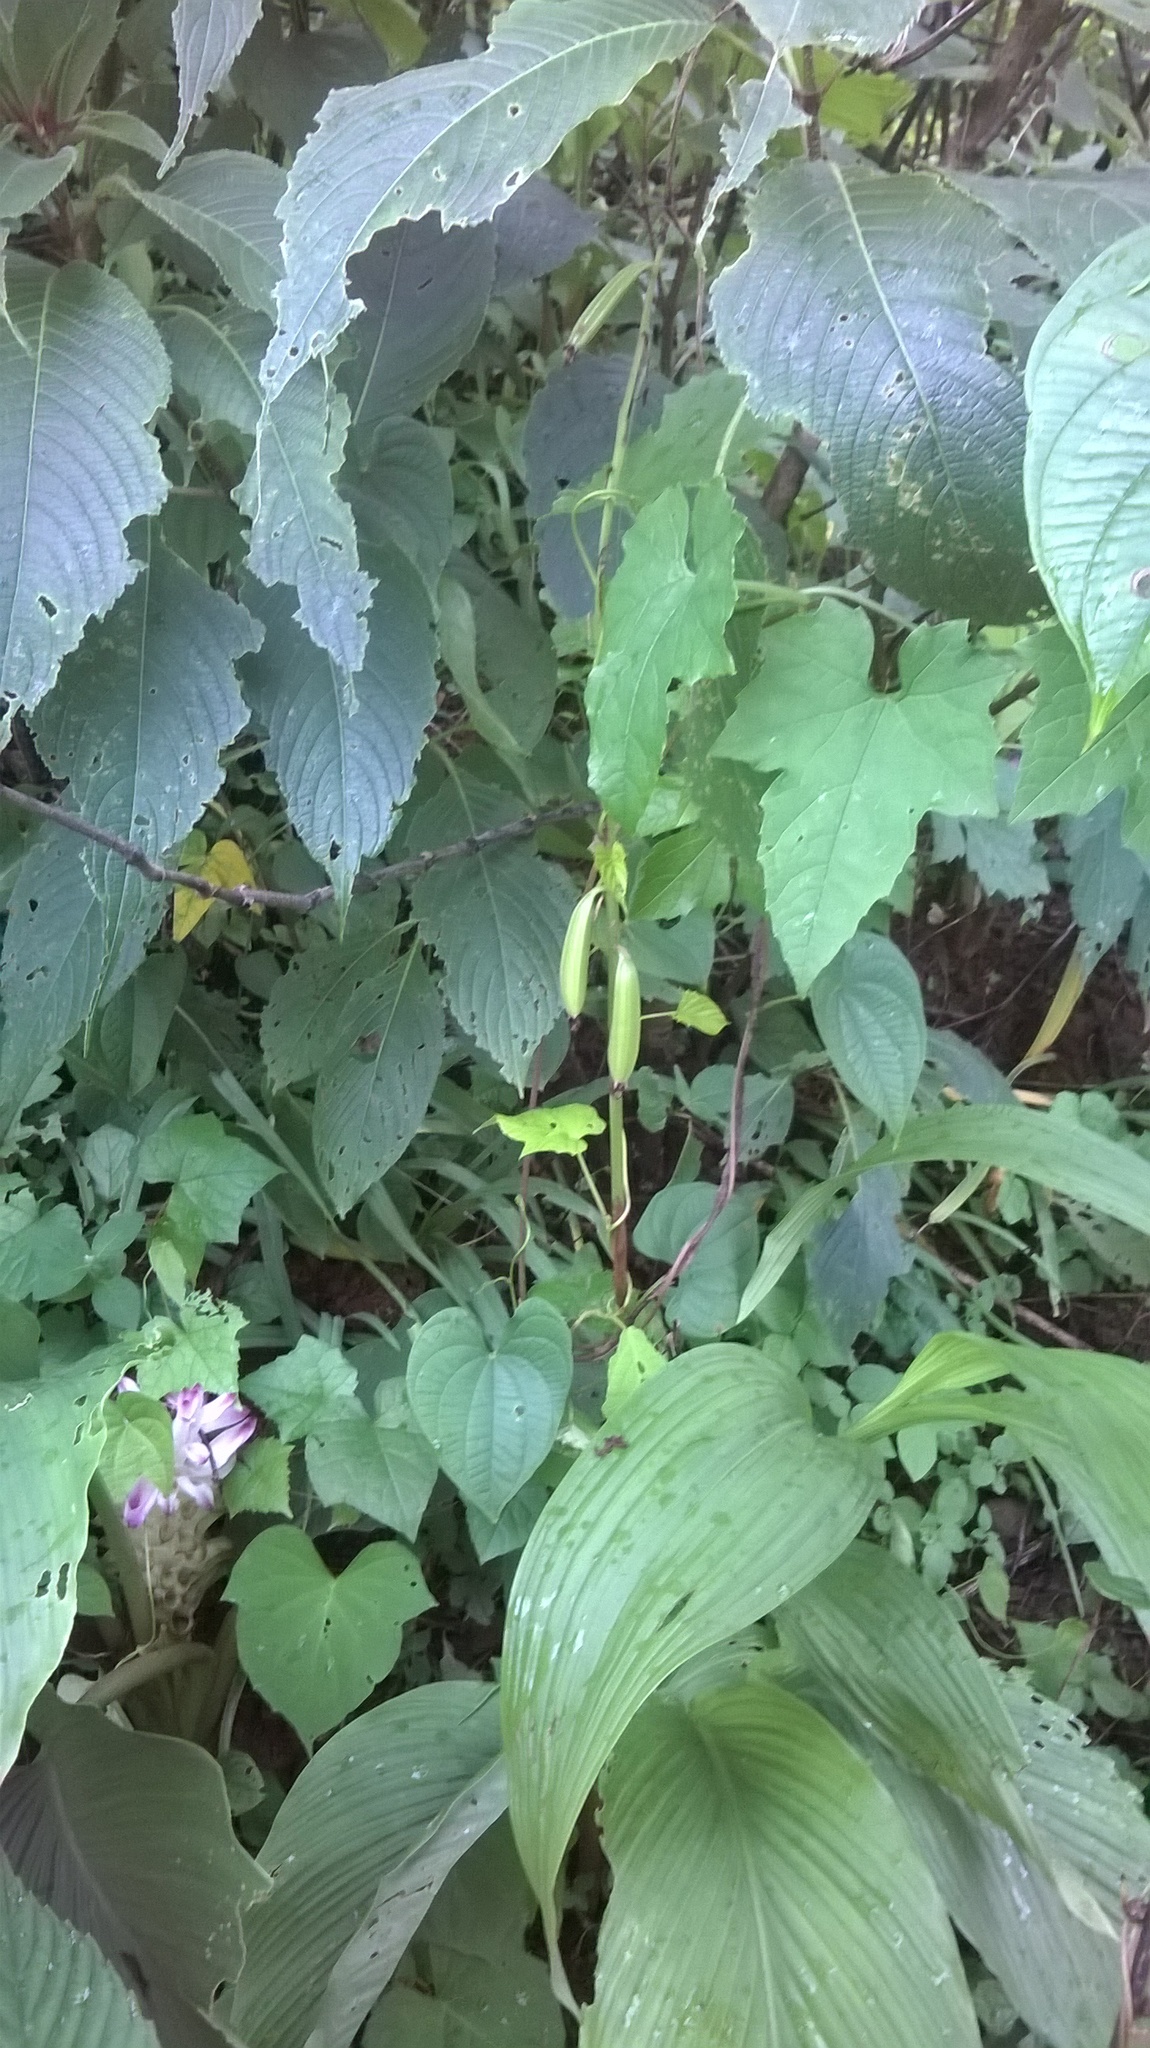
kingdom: Plantae
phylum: Tracheophyta
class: Liliopsida
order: Asparagales
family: Orchidaceae
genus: Eulophia
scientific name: Eulophia herbacea
